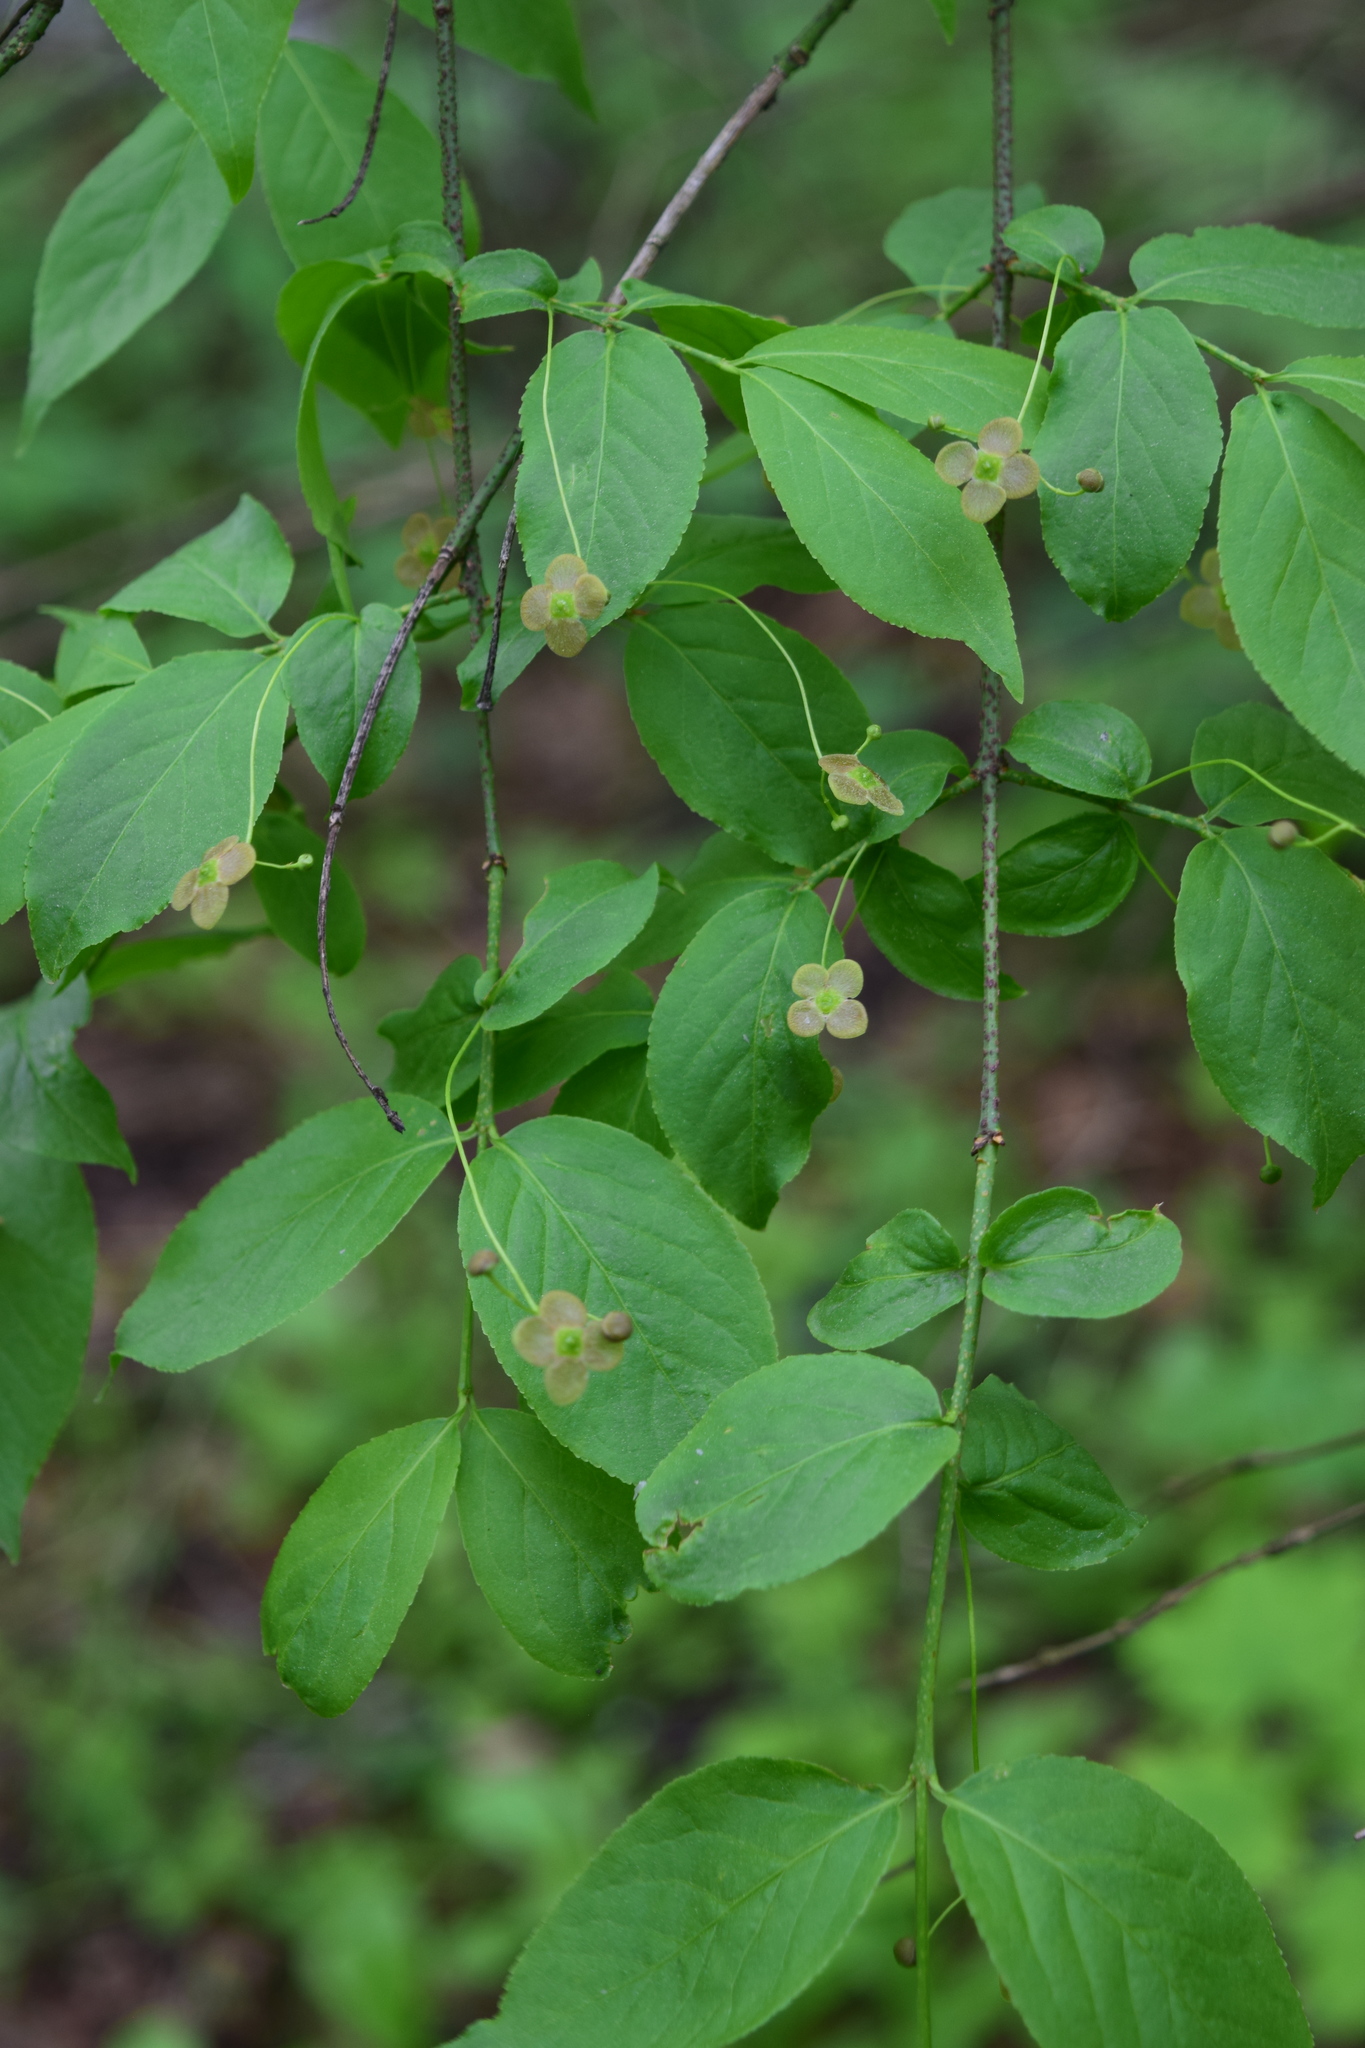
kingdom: Plantae
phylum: Tracheophyta
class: Magnoliopsida
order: Celastrales
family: Celastraceae
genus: Euonymus
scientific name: Euonymus verrucosus
